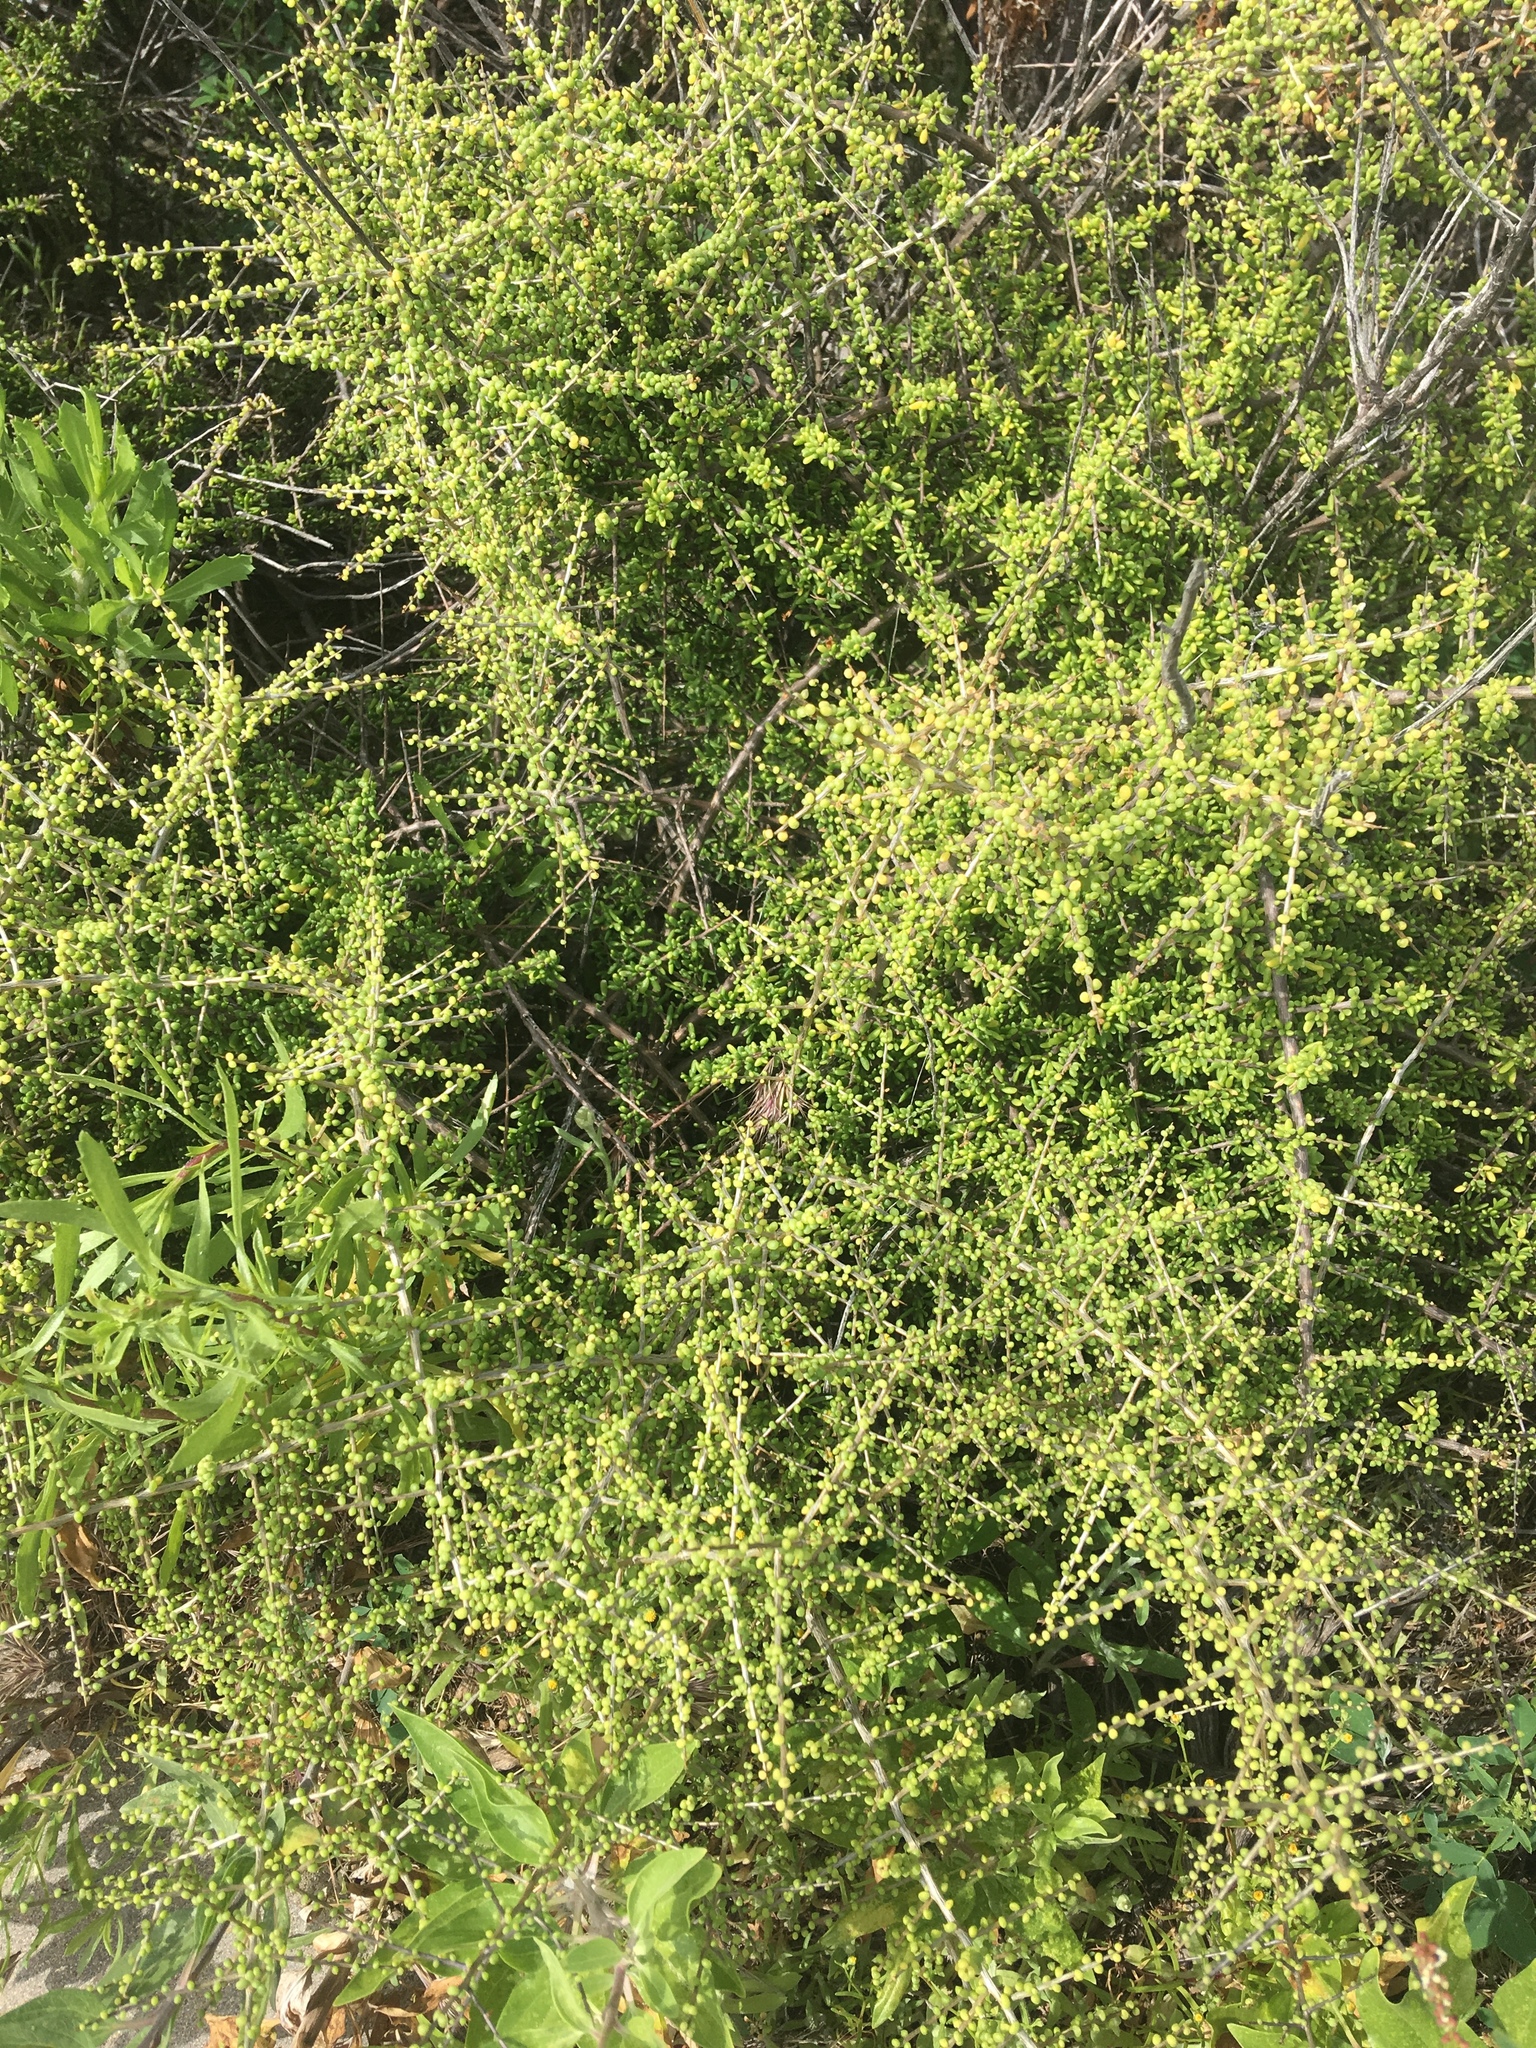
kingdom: Plantae
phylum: Tracheophyta
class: Magnoliopsida
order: Solanales
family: Solanaceae
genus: Lycium
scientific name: Lycium californicum
